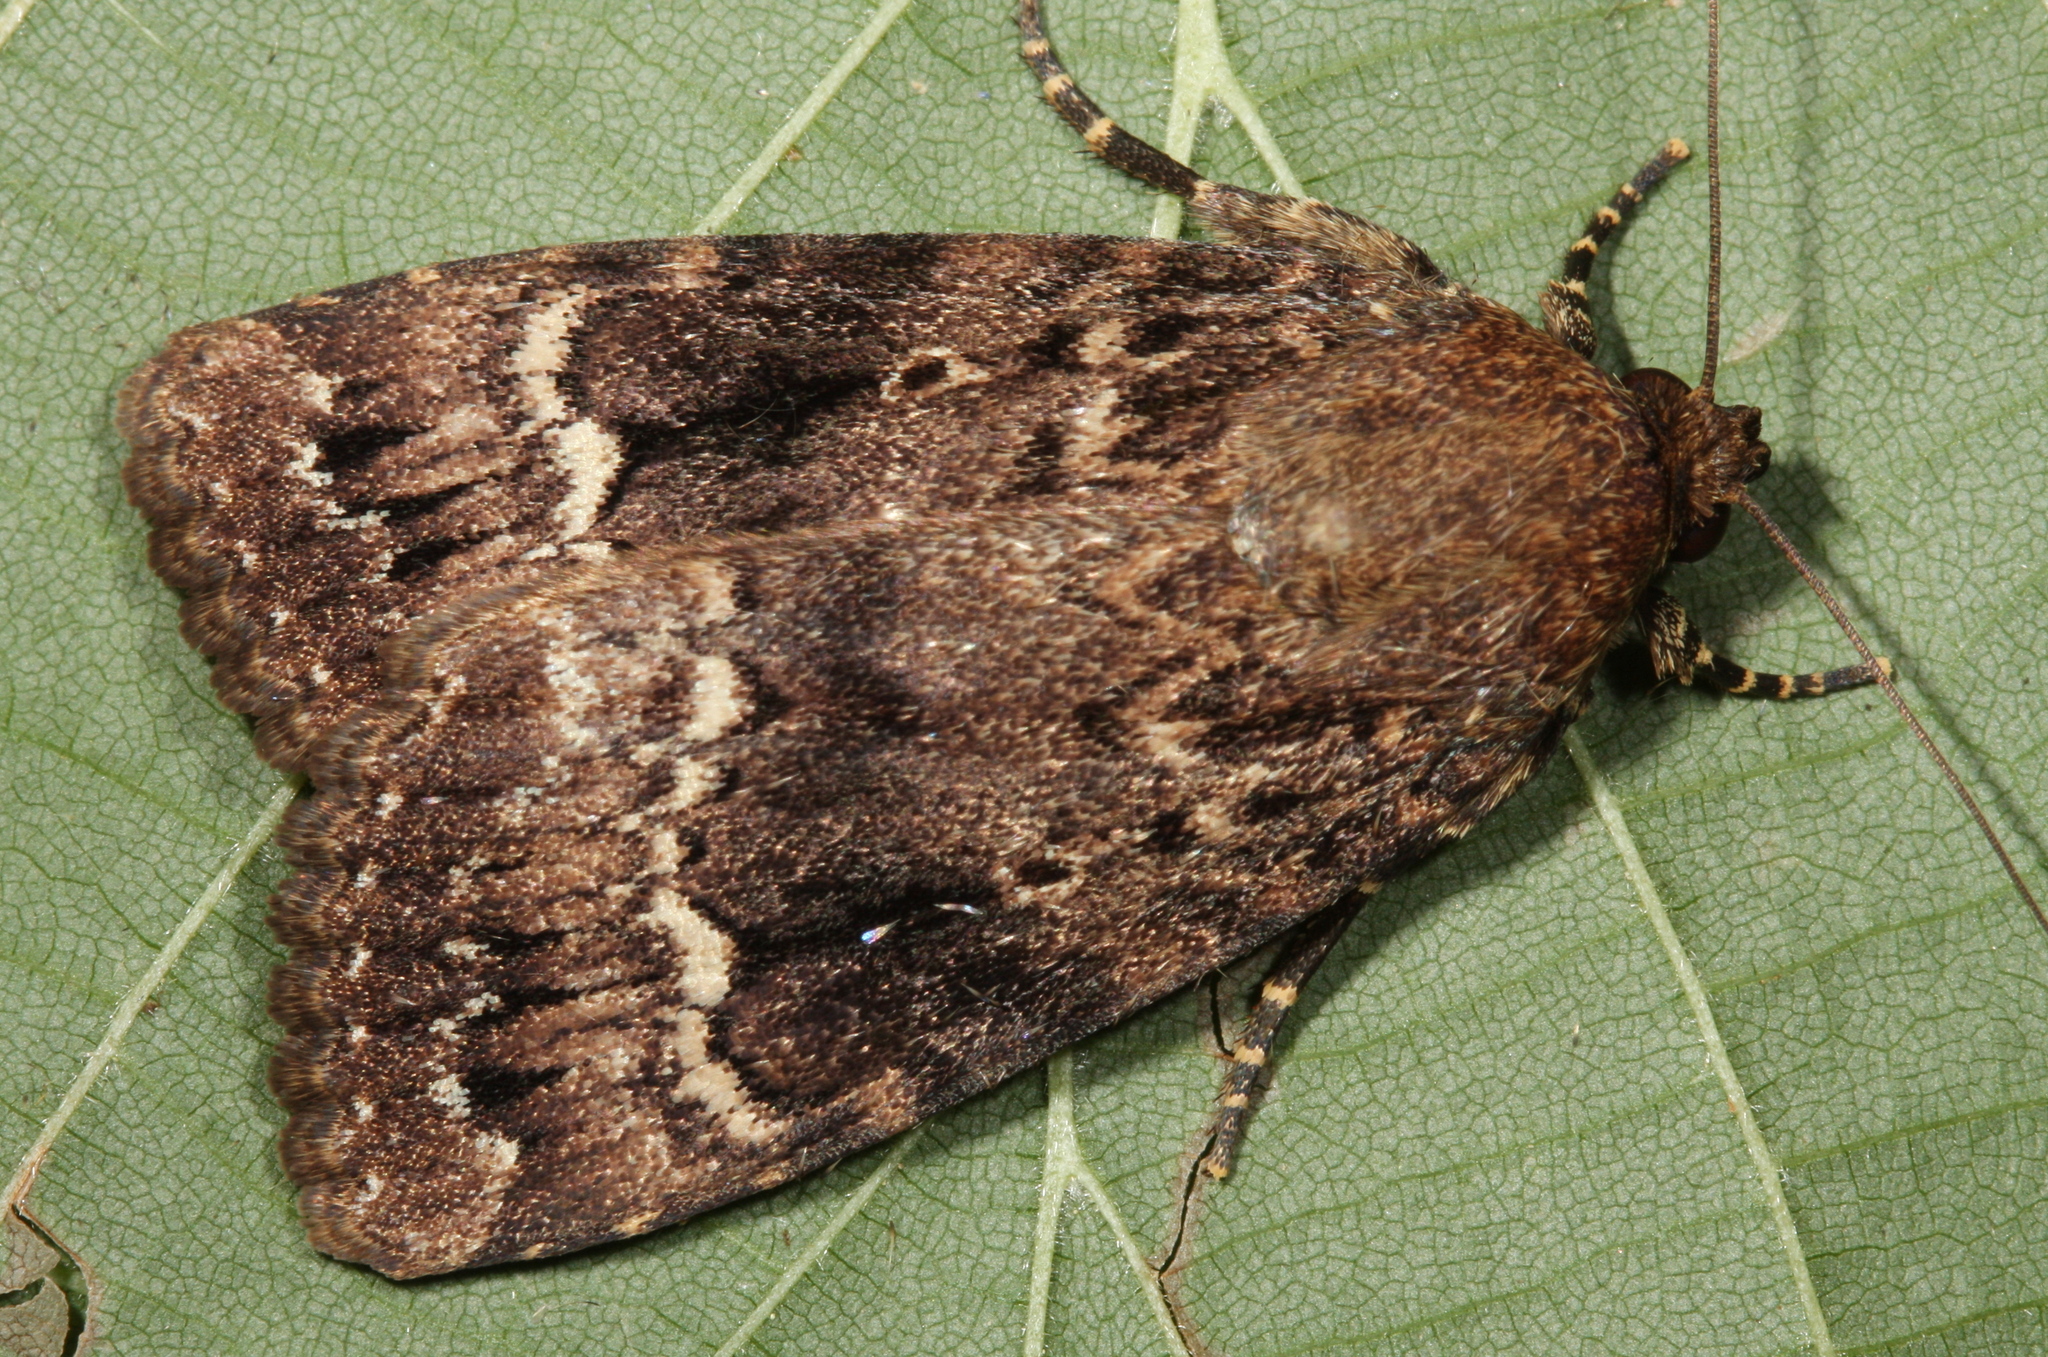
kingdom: Animalia
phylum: Arthropoda
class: Insecta
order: Lepidoptera
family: Noctuidae
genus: Amphipyra
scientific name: Amphipyra pyramidea
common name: Copper underwing
